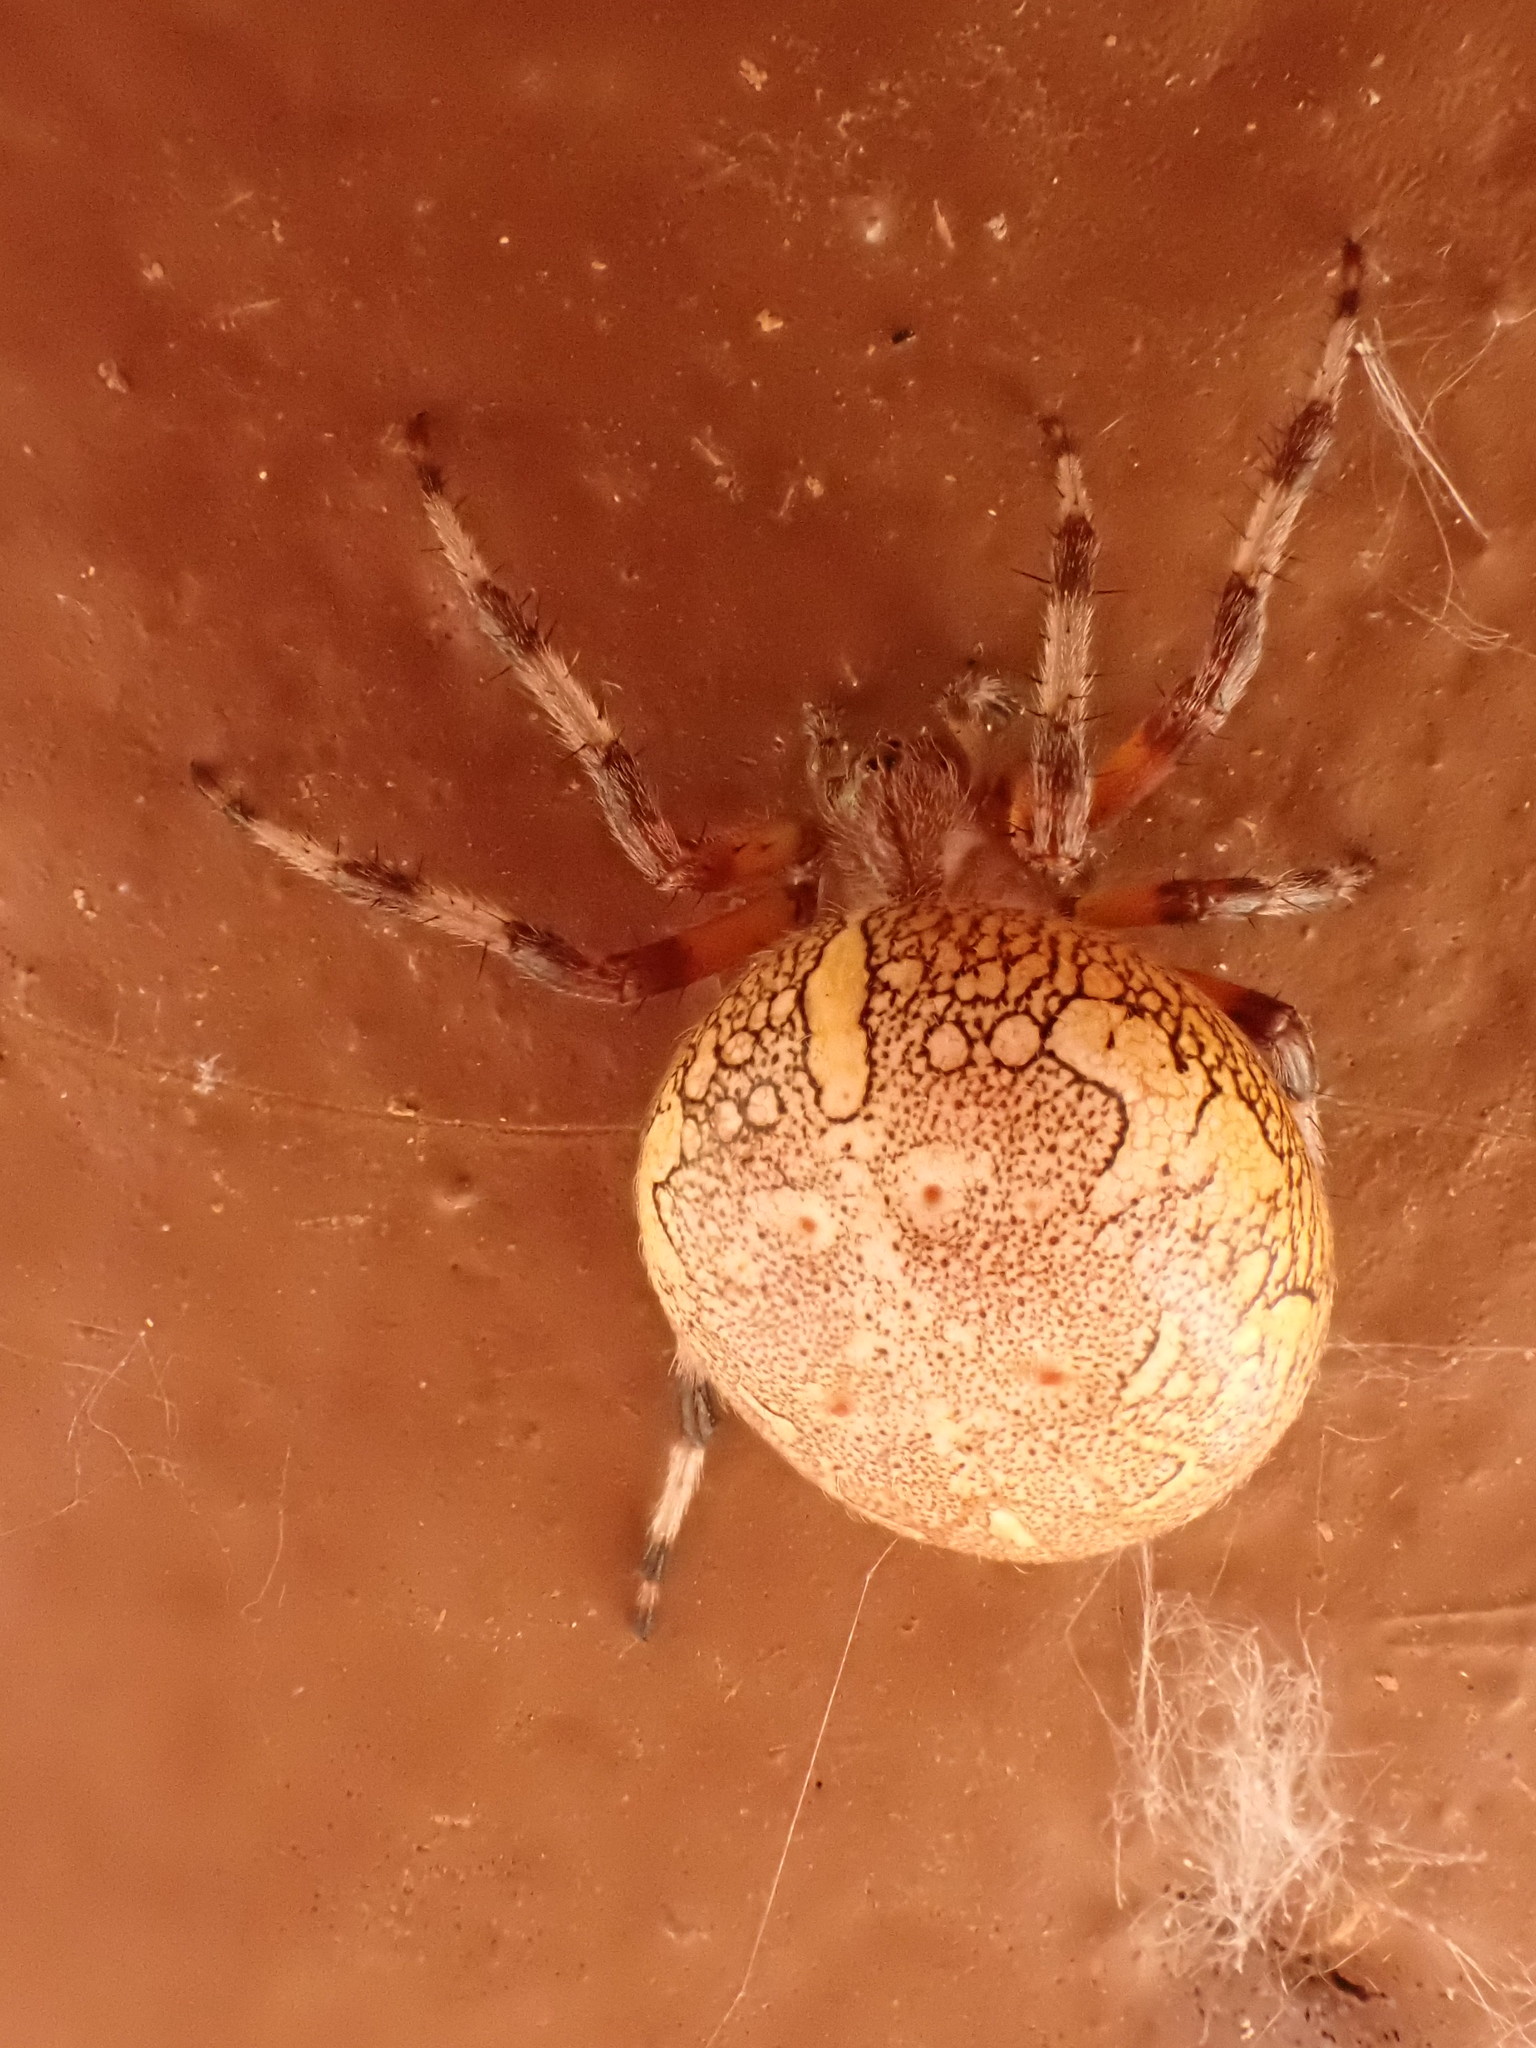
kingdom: Animalia
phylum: Arthropoda
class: Arachnida
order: Araneae
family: Araneidae
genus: Araneus
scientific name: Araneus marmoreus
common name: Marbled orbweaver
